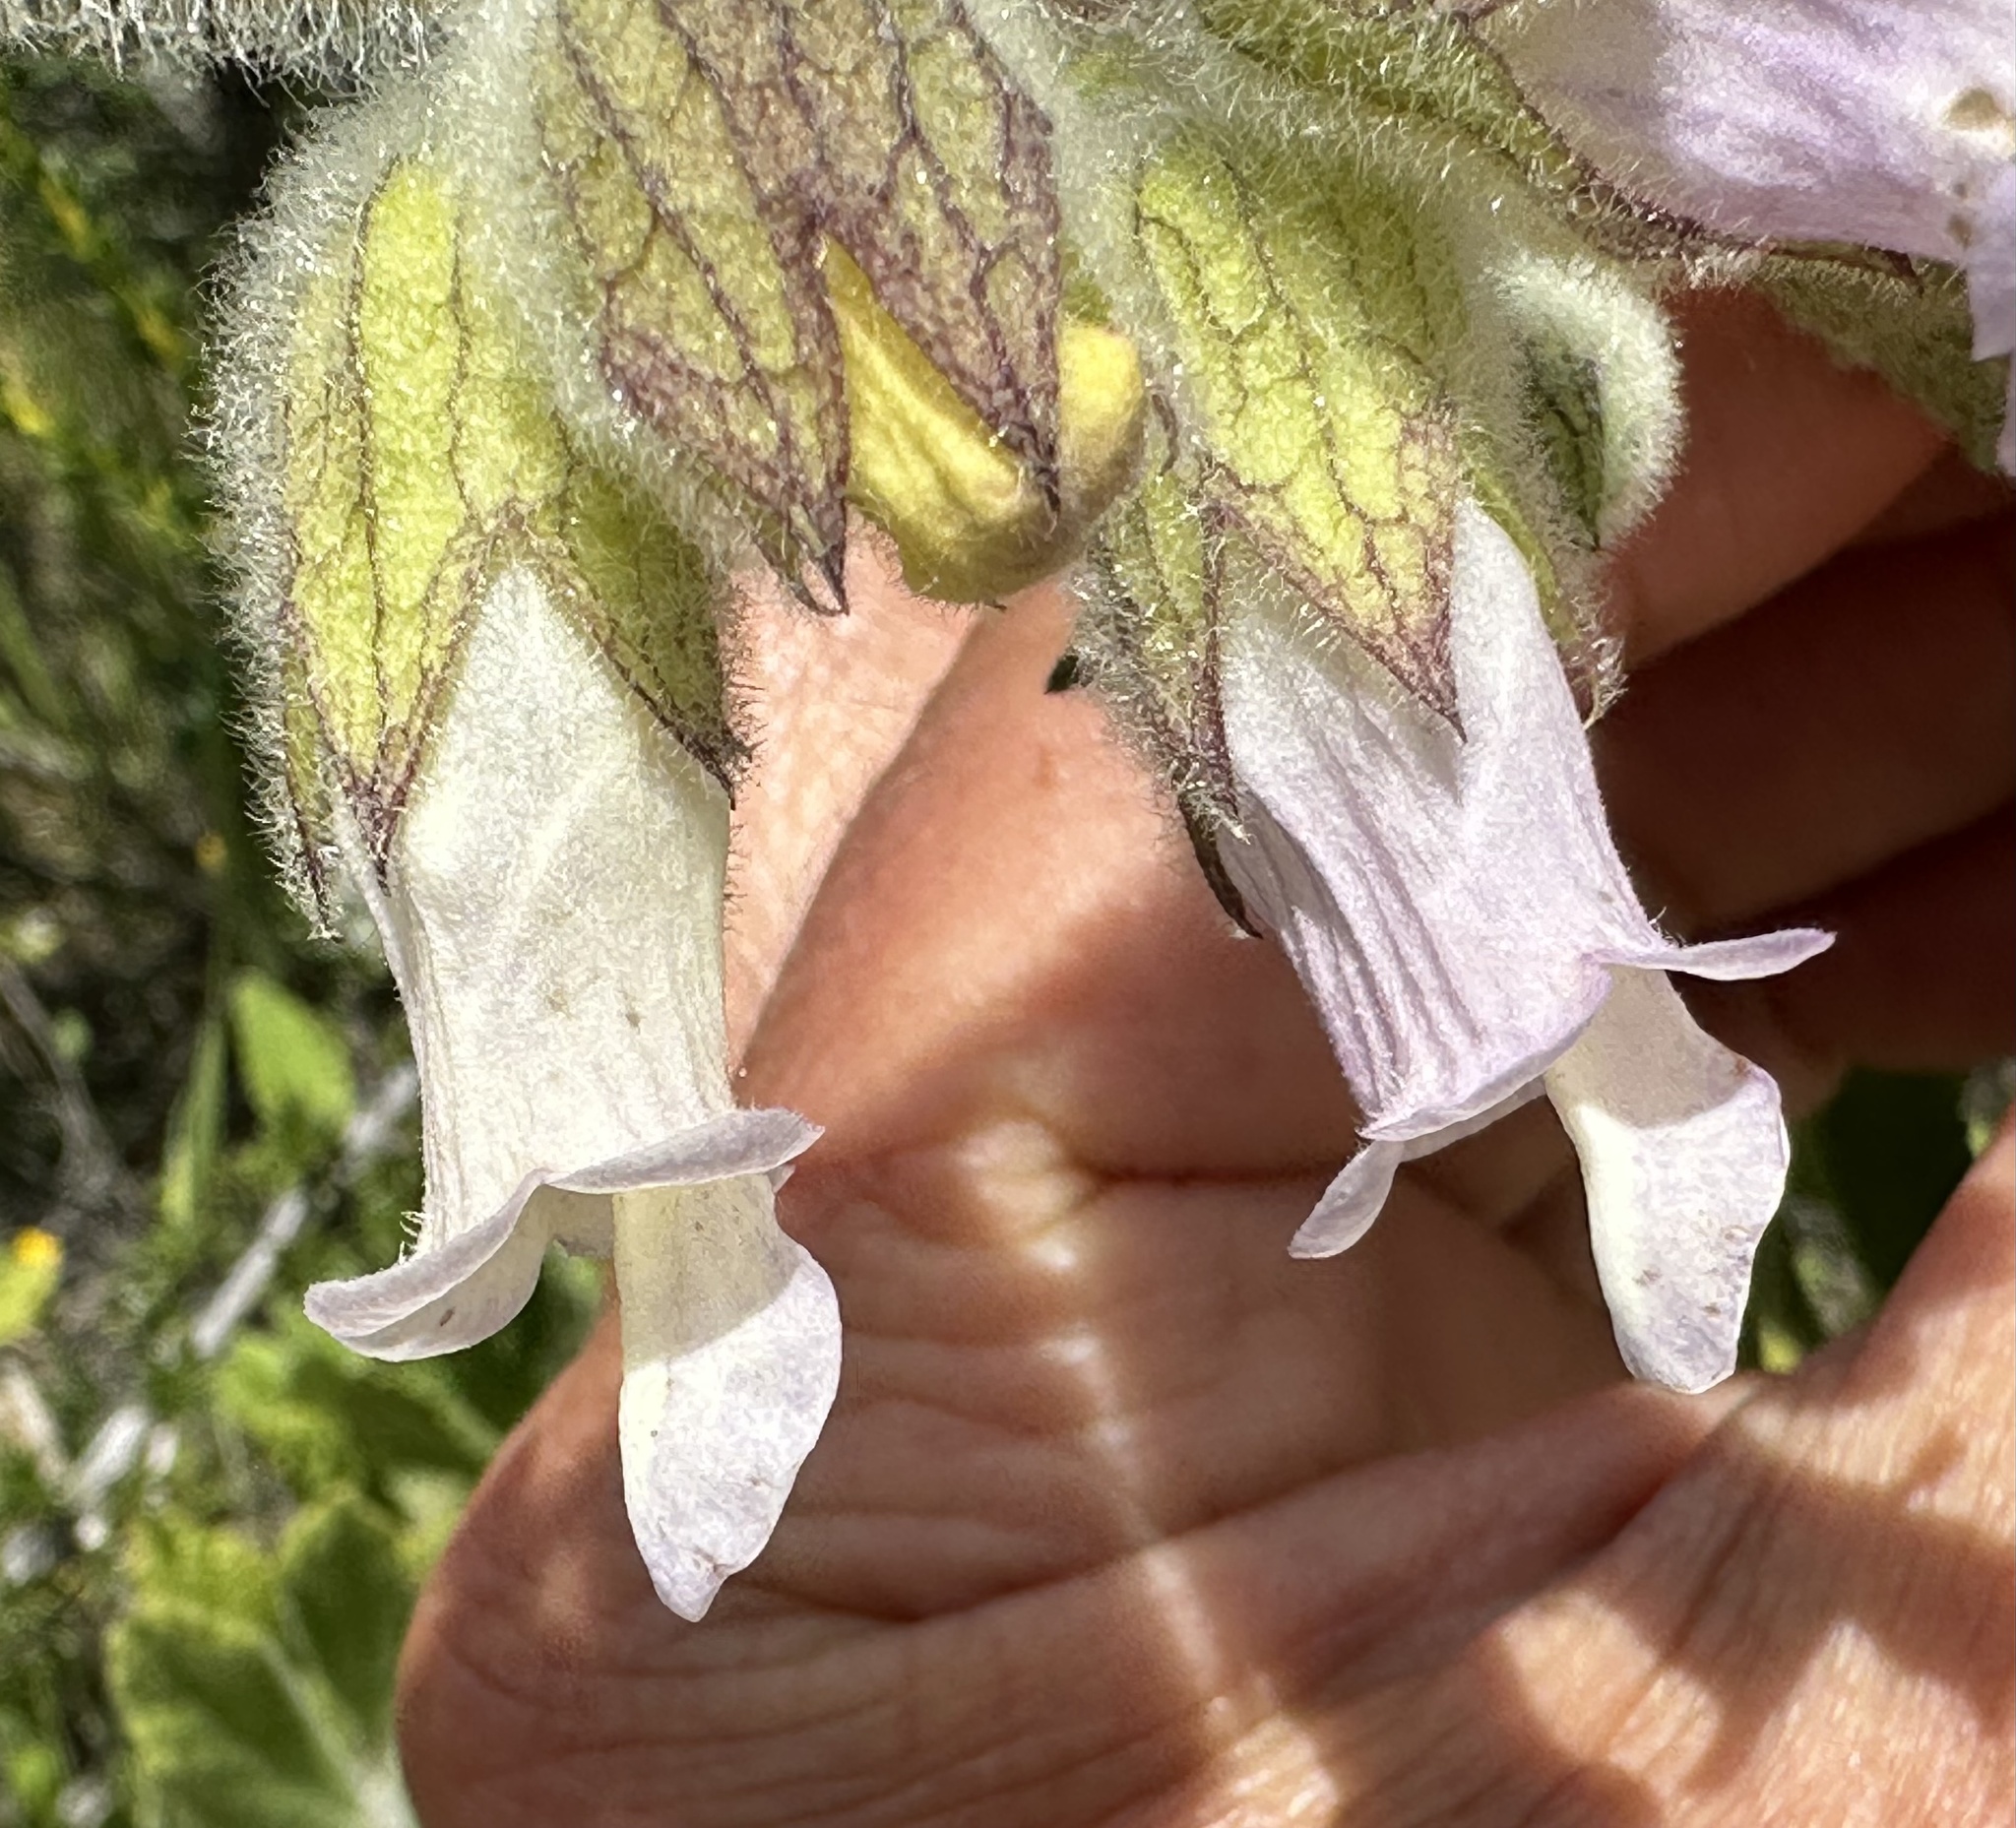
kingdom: Plantae
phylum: Tracheophyta
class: Magnoliopsida
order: Lamiales
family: Lamiaceae
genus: Lepechinia
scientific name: Lepechinia calycina
